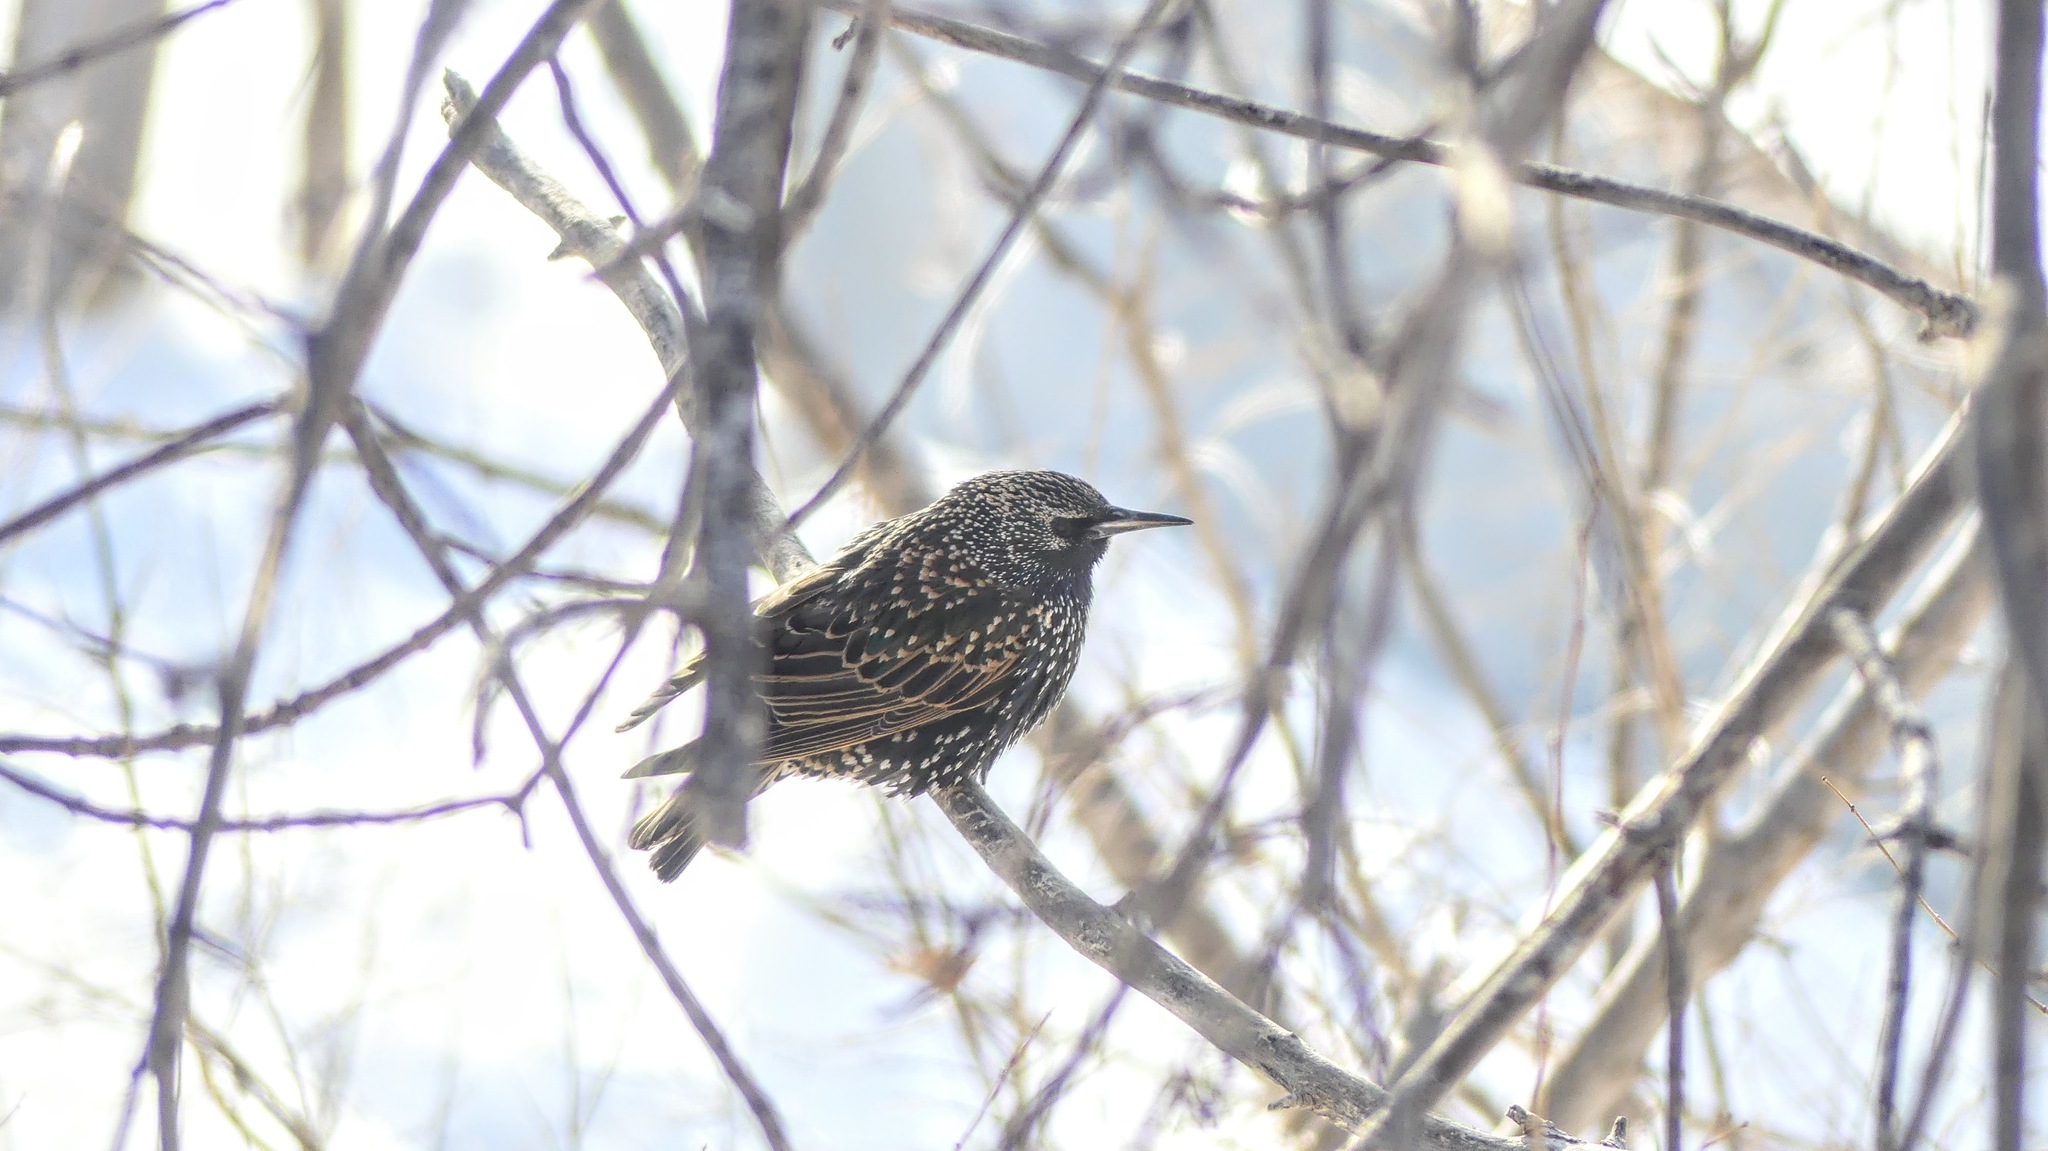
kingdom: Animalia
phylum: Chordata
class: Aves
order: Passeriformes
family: Sturnidae
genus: Sturnus
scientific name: Sturnus vulgaris
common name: Common starling
